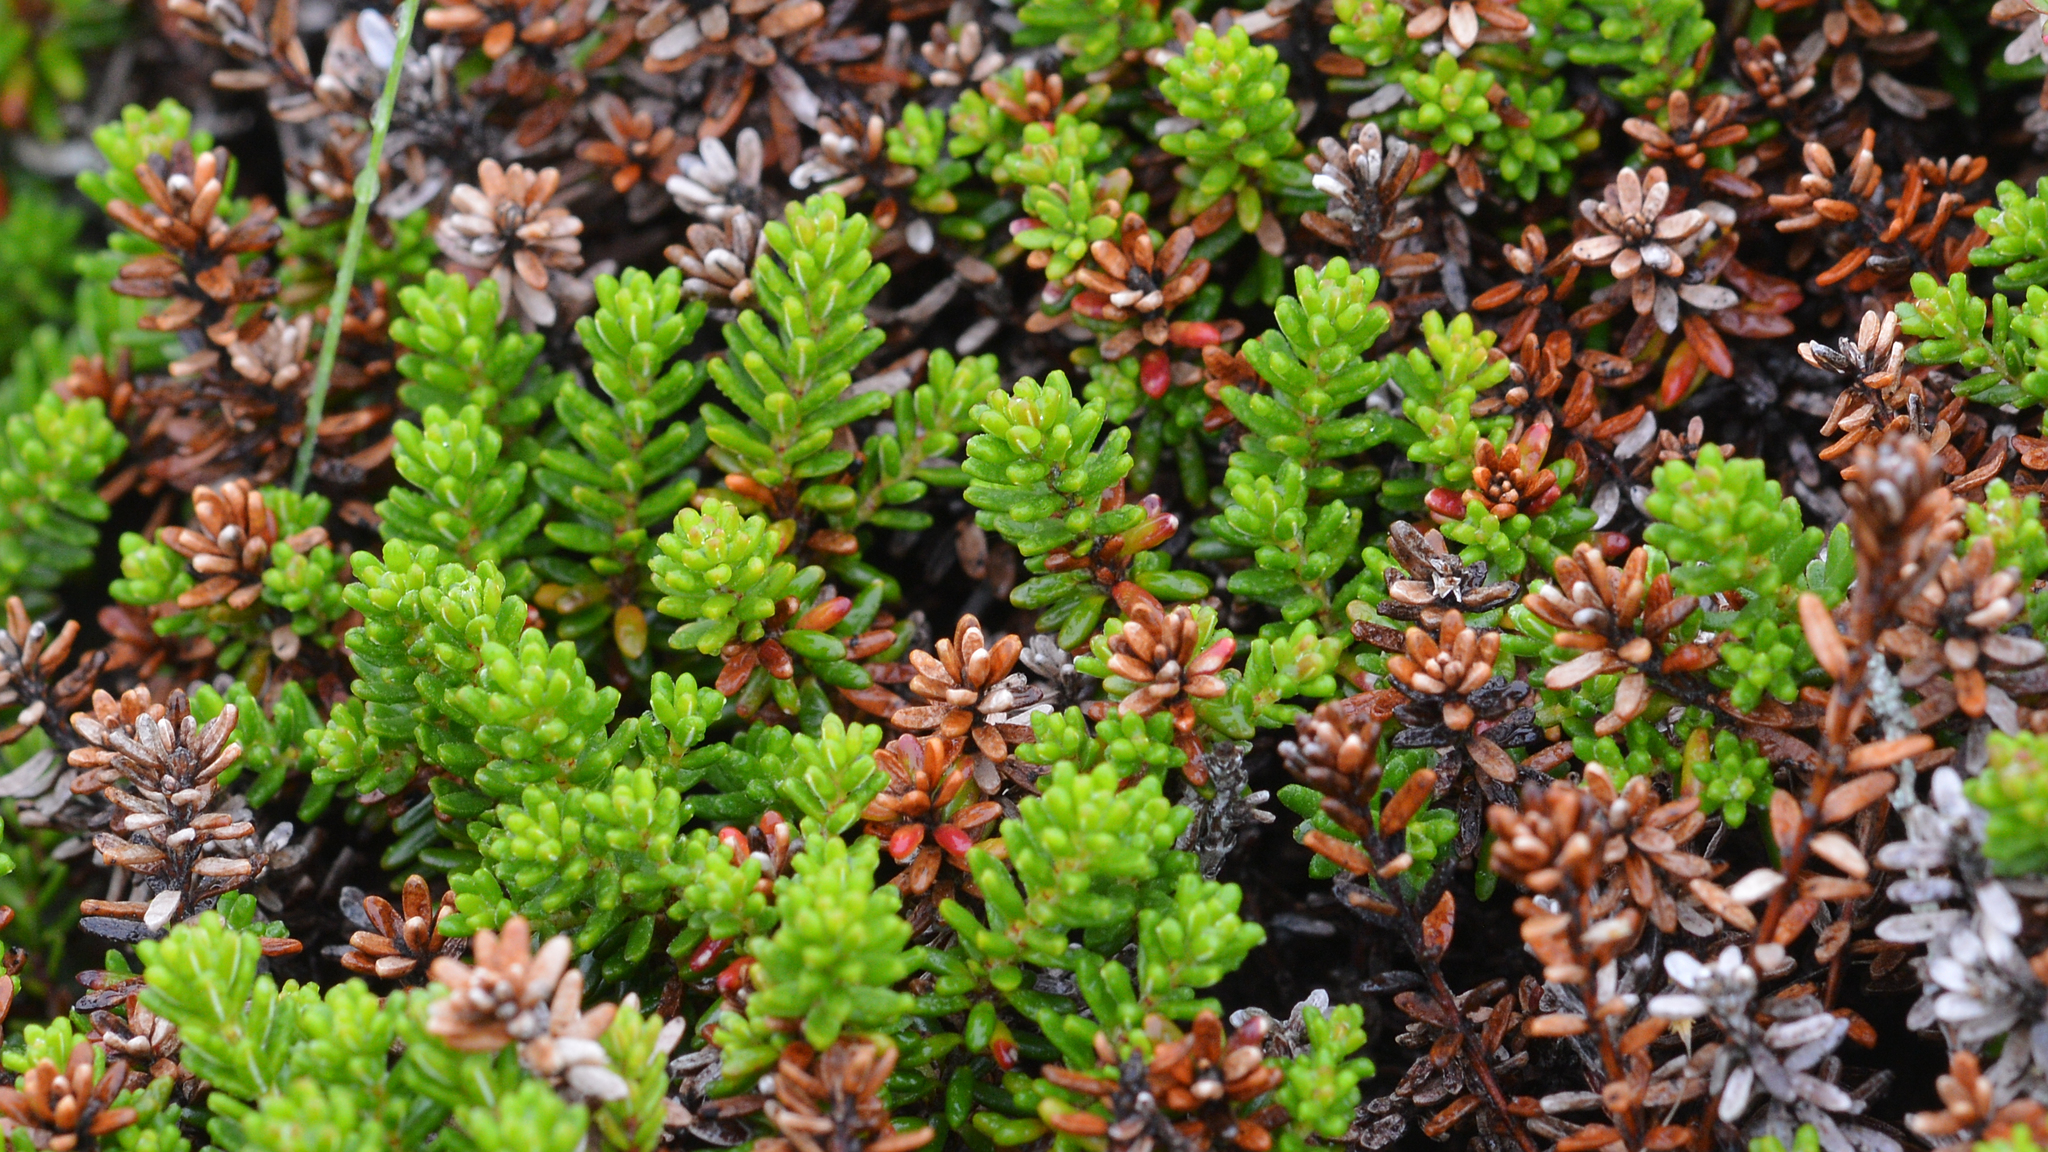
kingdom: Plantae
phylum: Tracheophyta
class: Magnoliopsida
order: Ericales
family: Ericaceae
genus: Empetrum
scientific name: Empetrum nigrum
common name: Black crowberry
